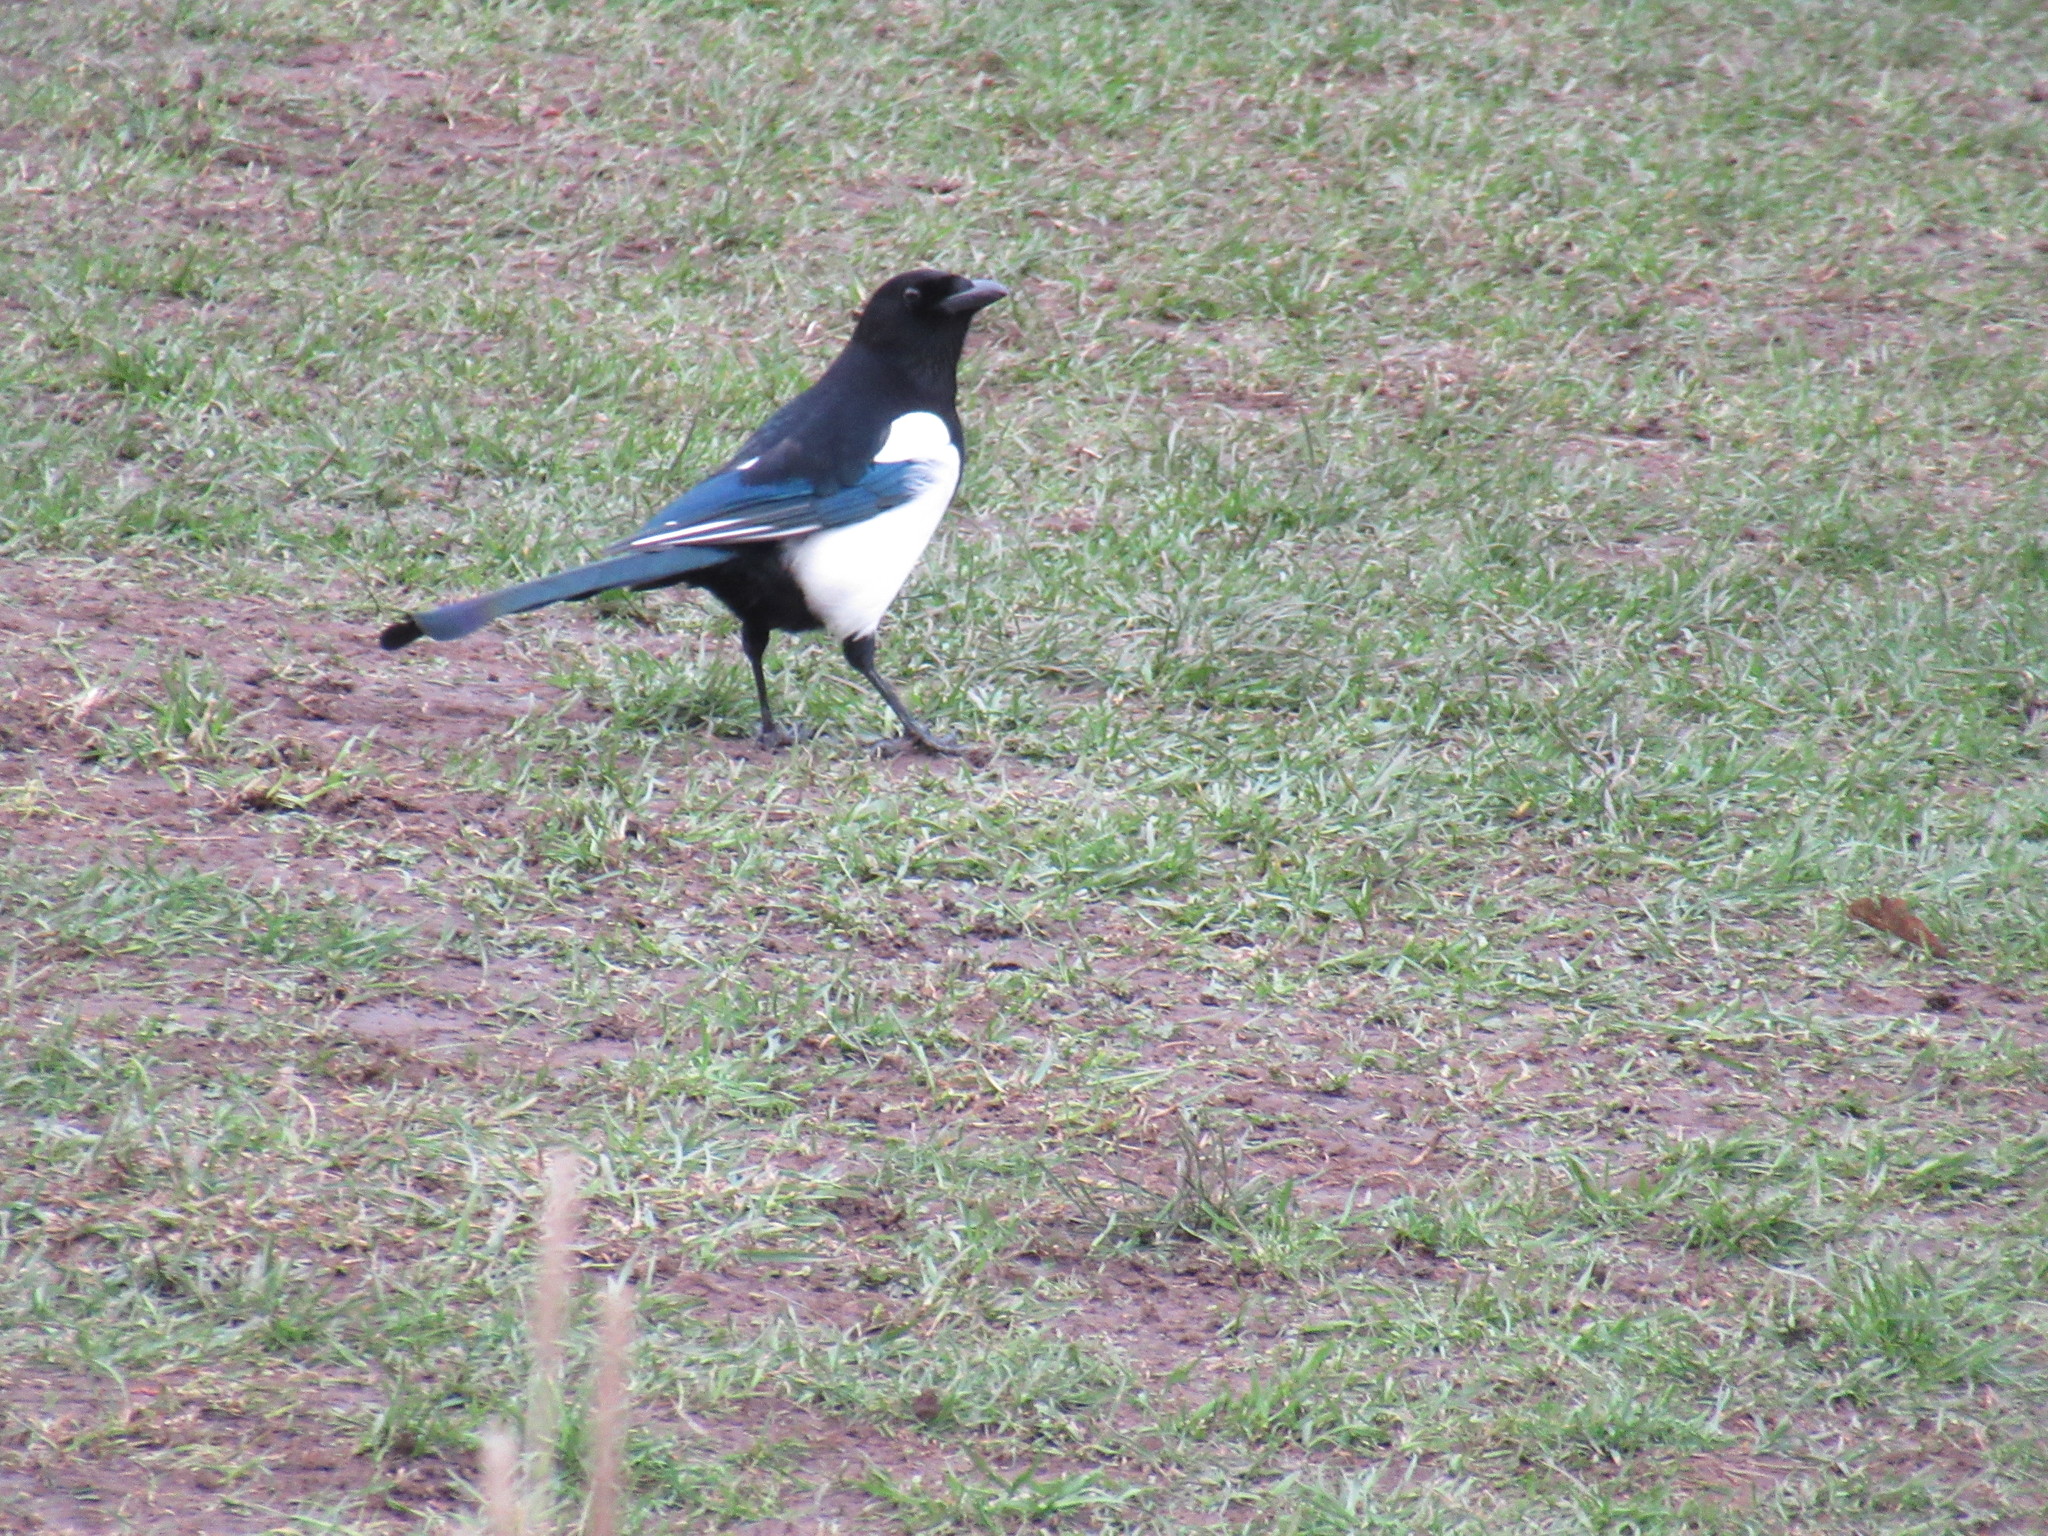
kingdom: Animalia
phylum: Chordata
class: Aves
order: Passeriformes
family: Corvidae
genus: Pica
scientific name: Pica pica
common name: Eurasian magpie
